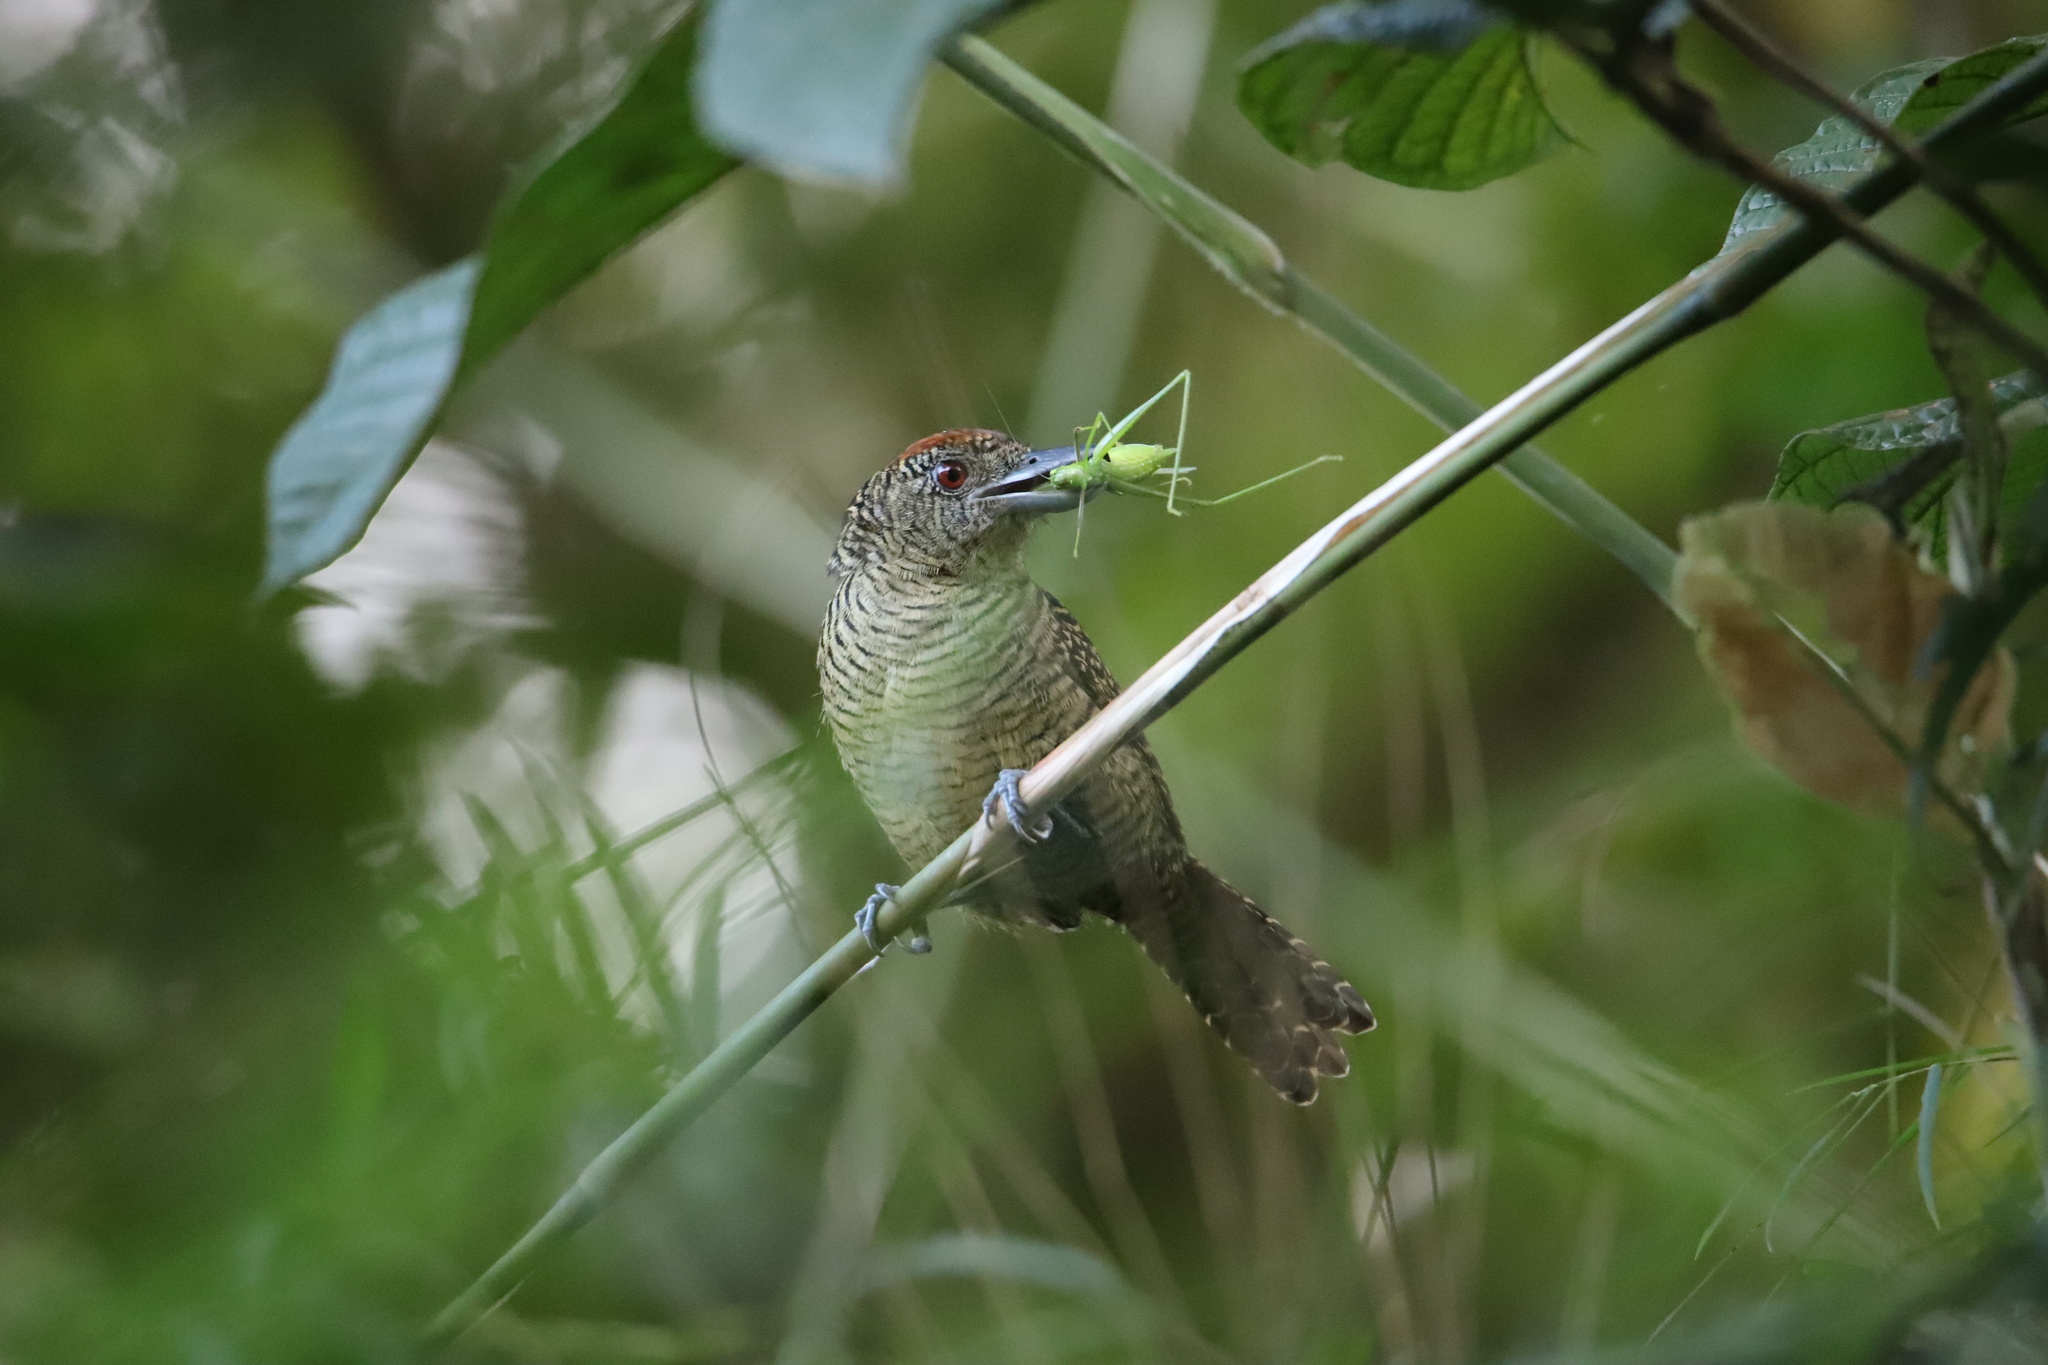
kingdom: Animalia
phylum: Chordata
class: Aves
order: Passeriformes
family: Thamnophilidae
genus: Cymbilaimus
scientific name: Cymbilaimus lineatus
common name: Fasciated antshrike
